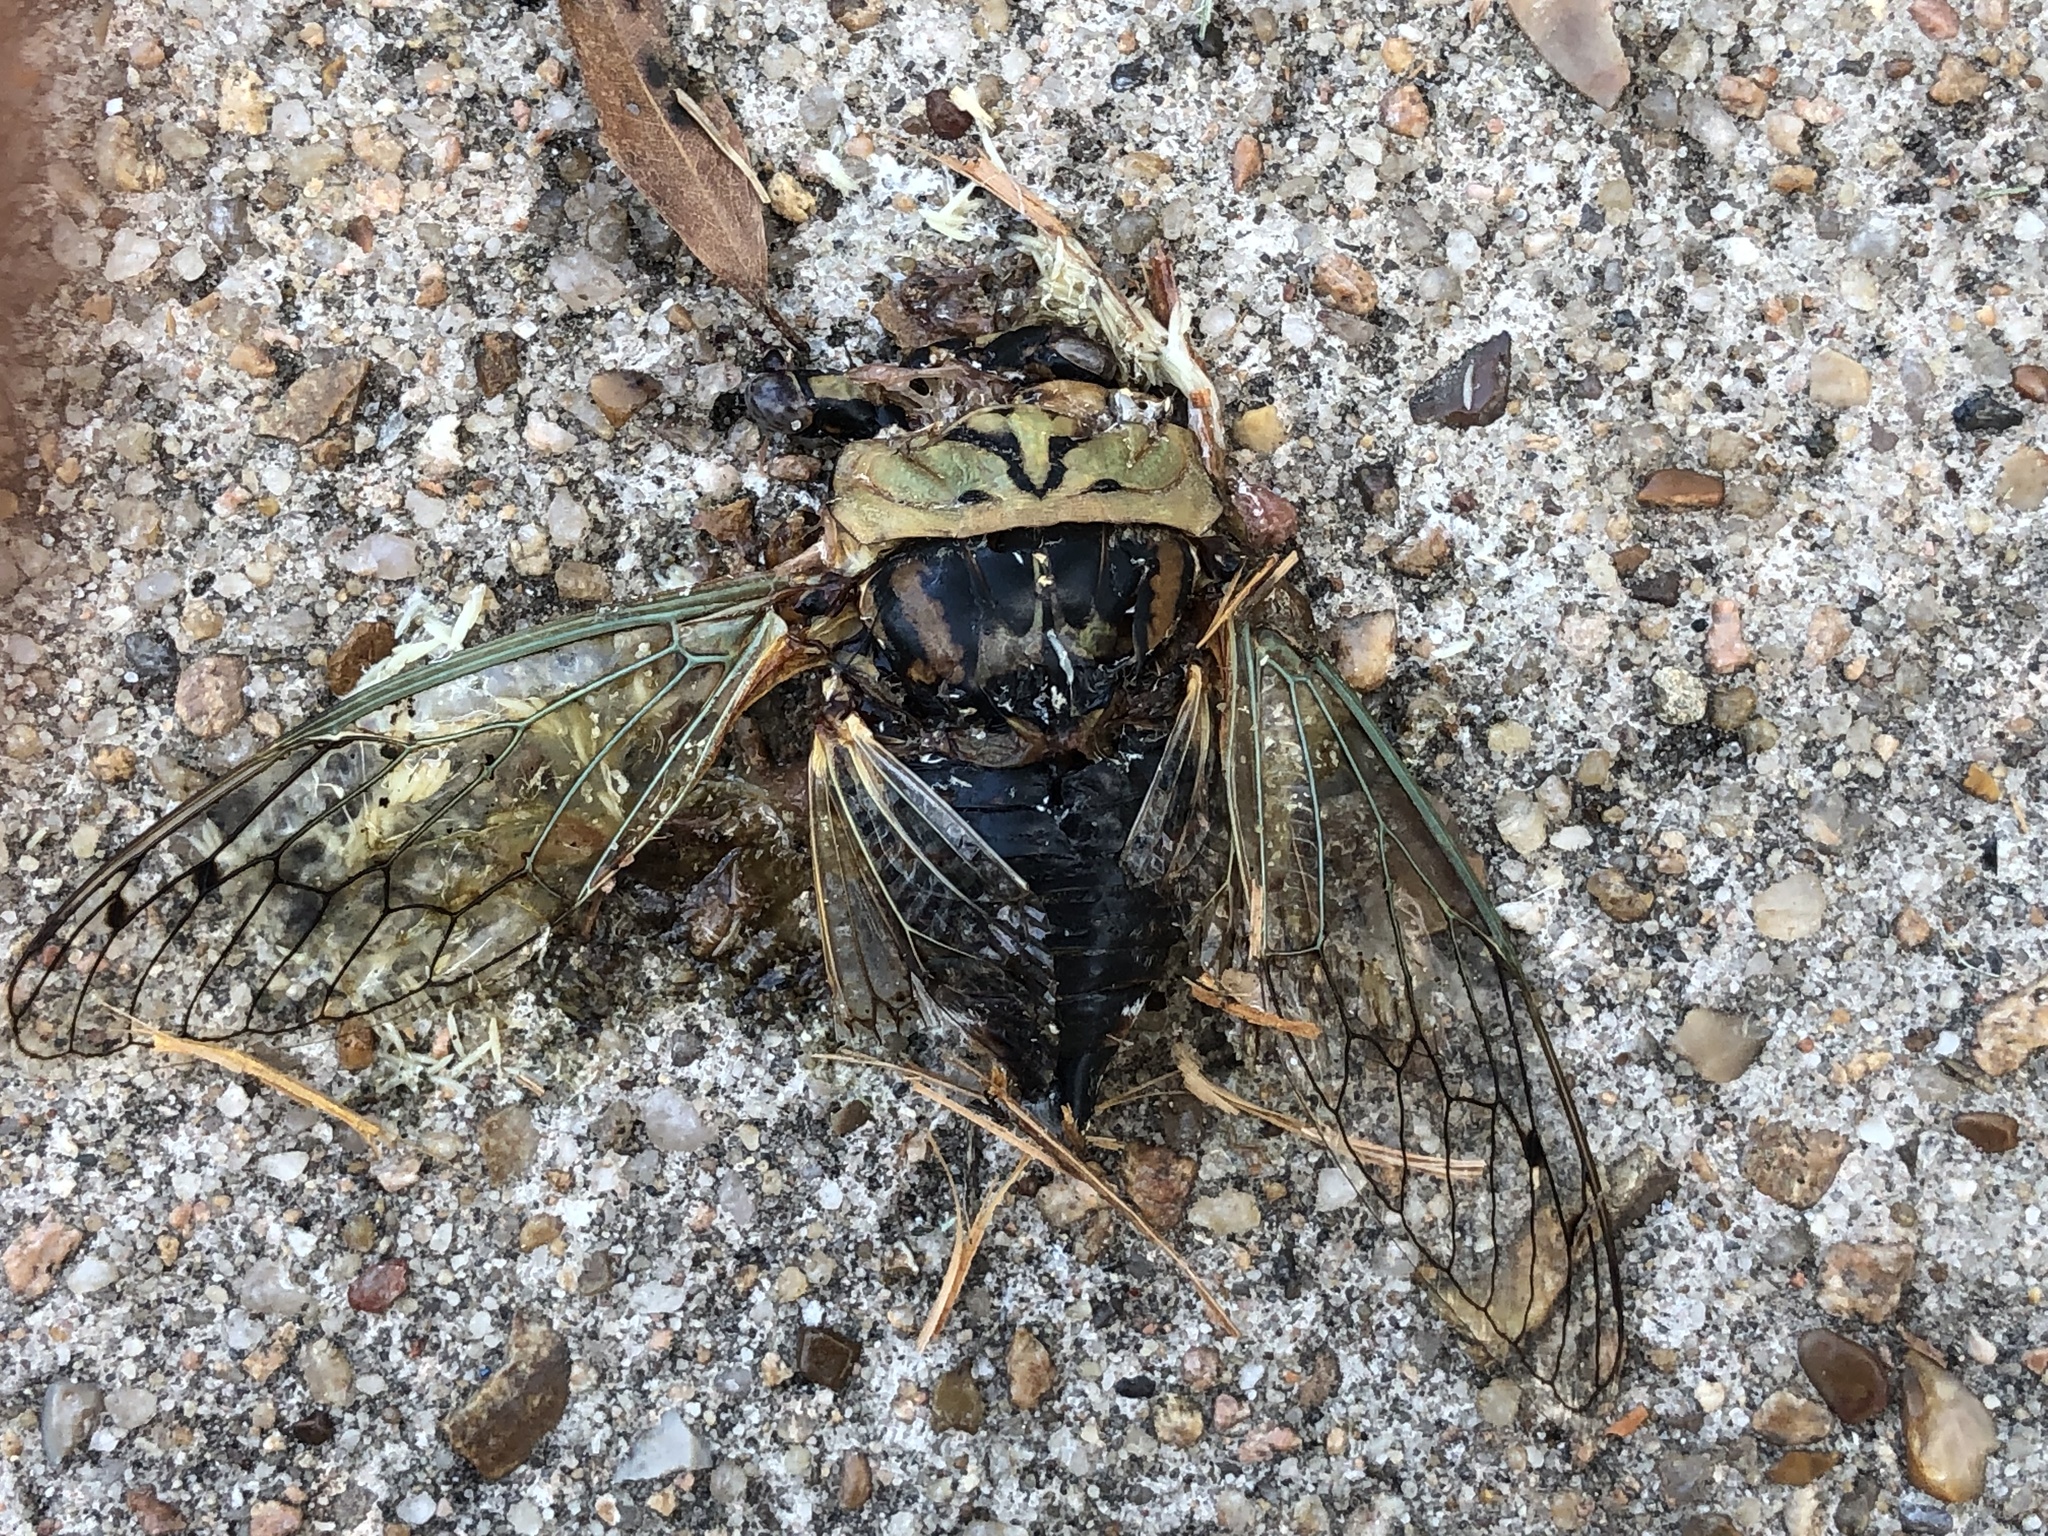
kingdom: Animalia
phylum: Arthropoda
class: Insecta
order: Hemiptera
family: Cicadidae
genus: Megatibicen
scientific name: Megatibicen resh
